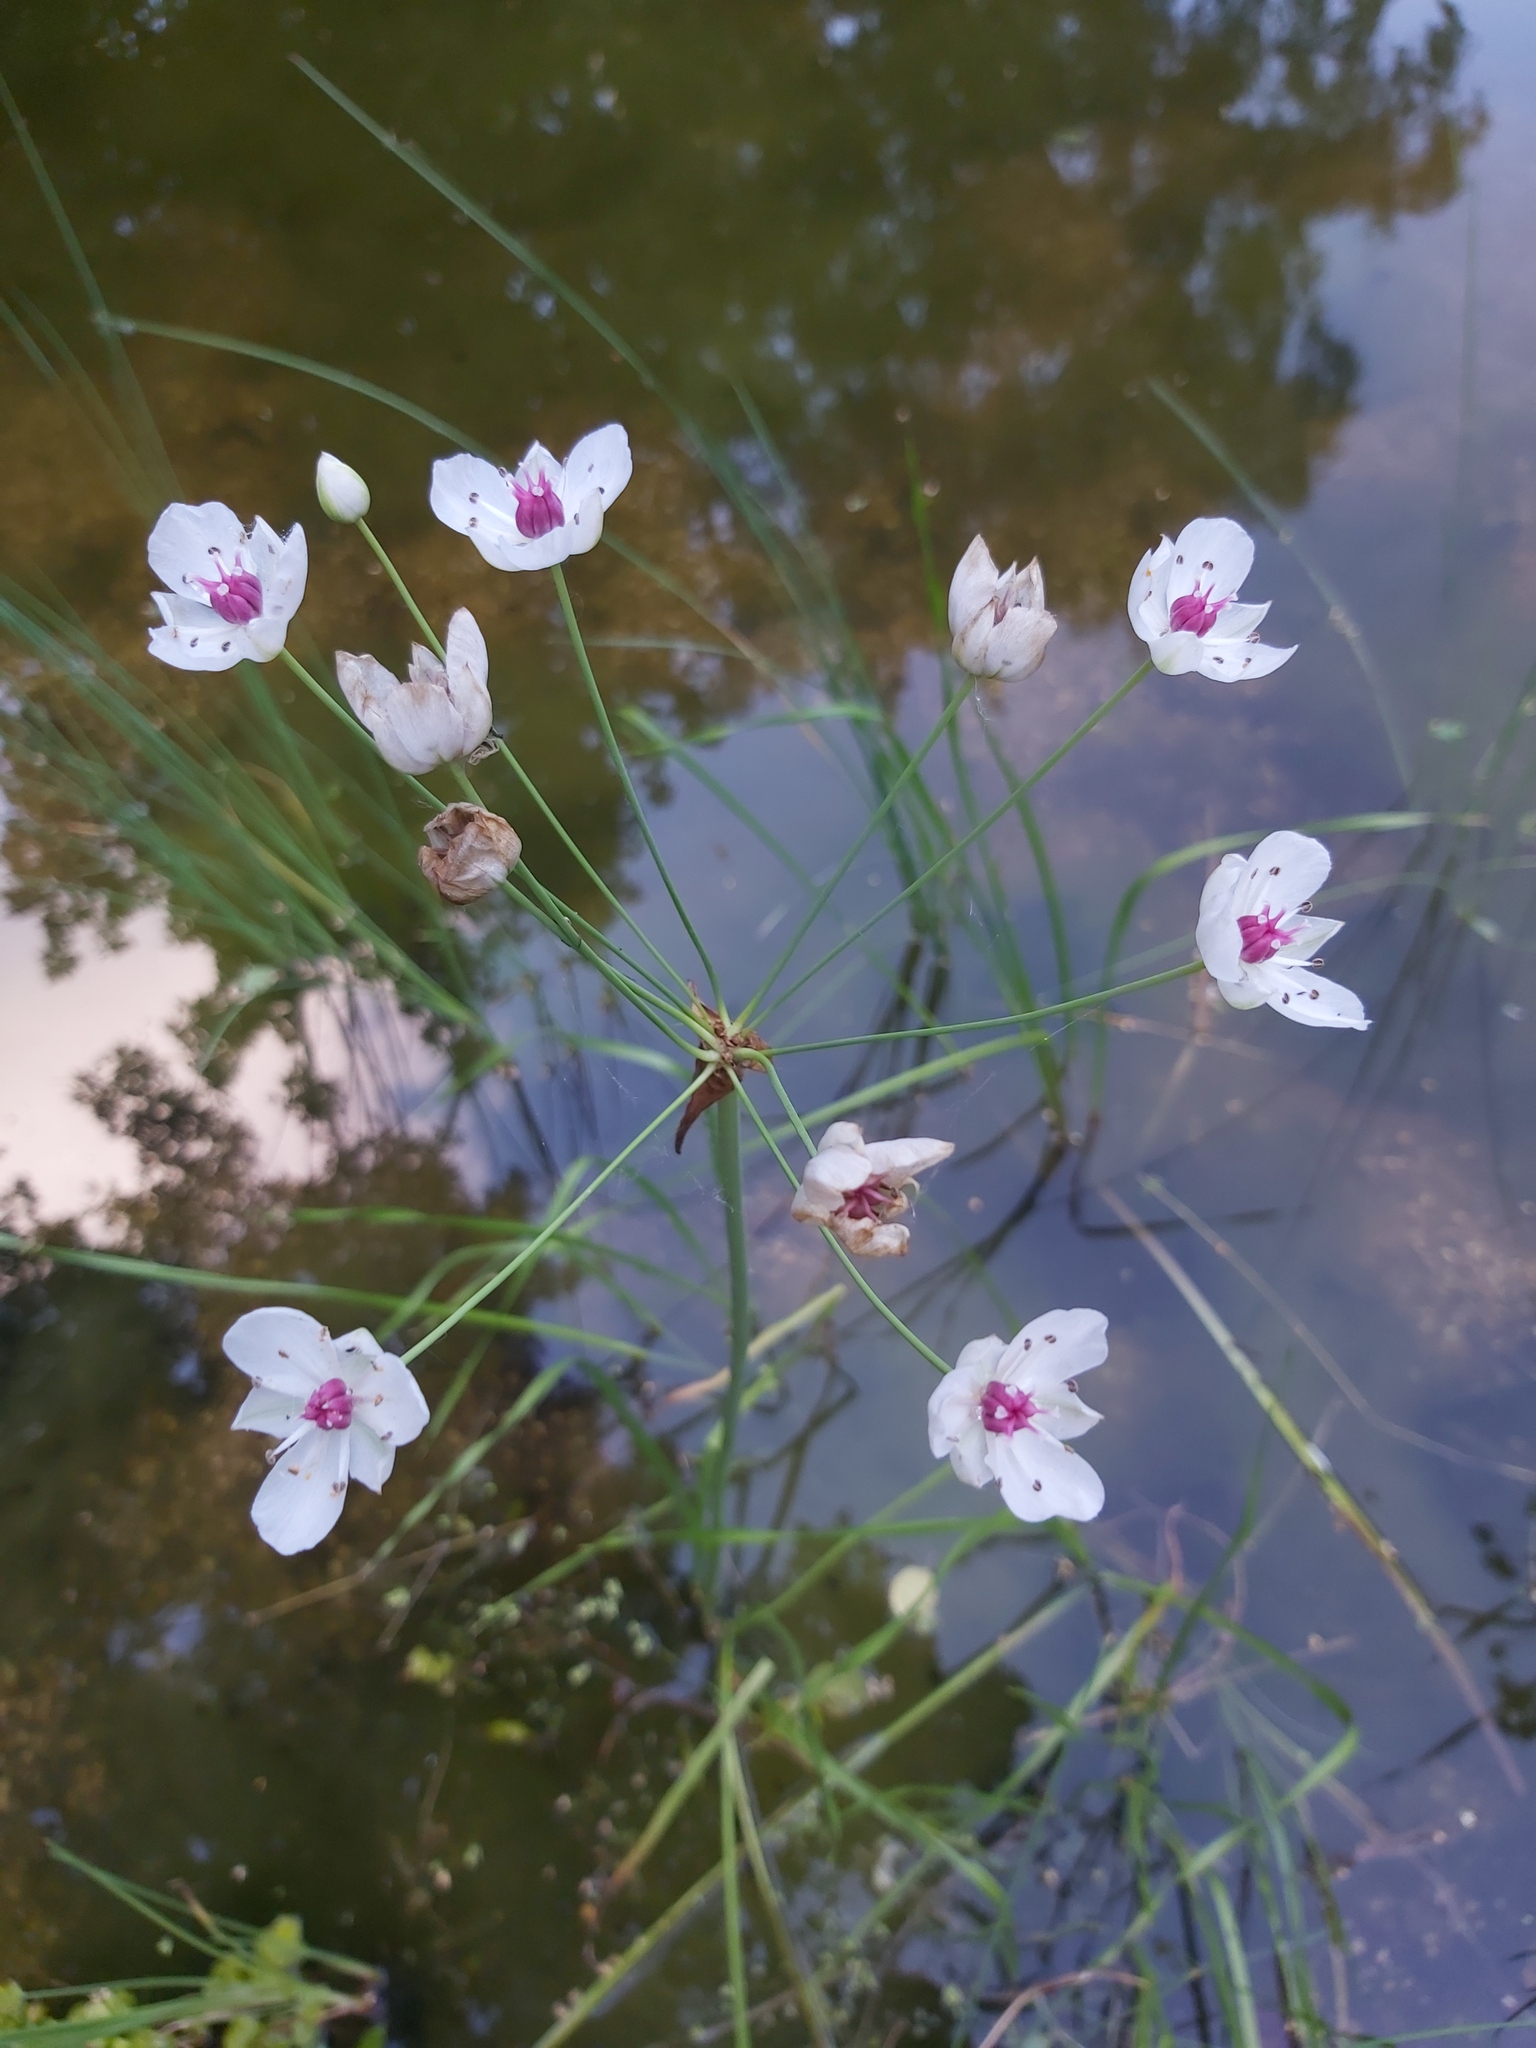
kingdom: Plantae
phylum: Tracheophyta
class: Liliopsida
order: Alismatales
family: Butomaceae
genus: Butomus
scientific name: Butomus umbellatus
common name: Flowering-rush
